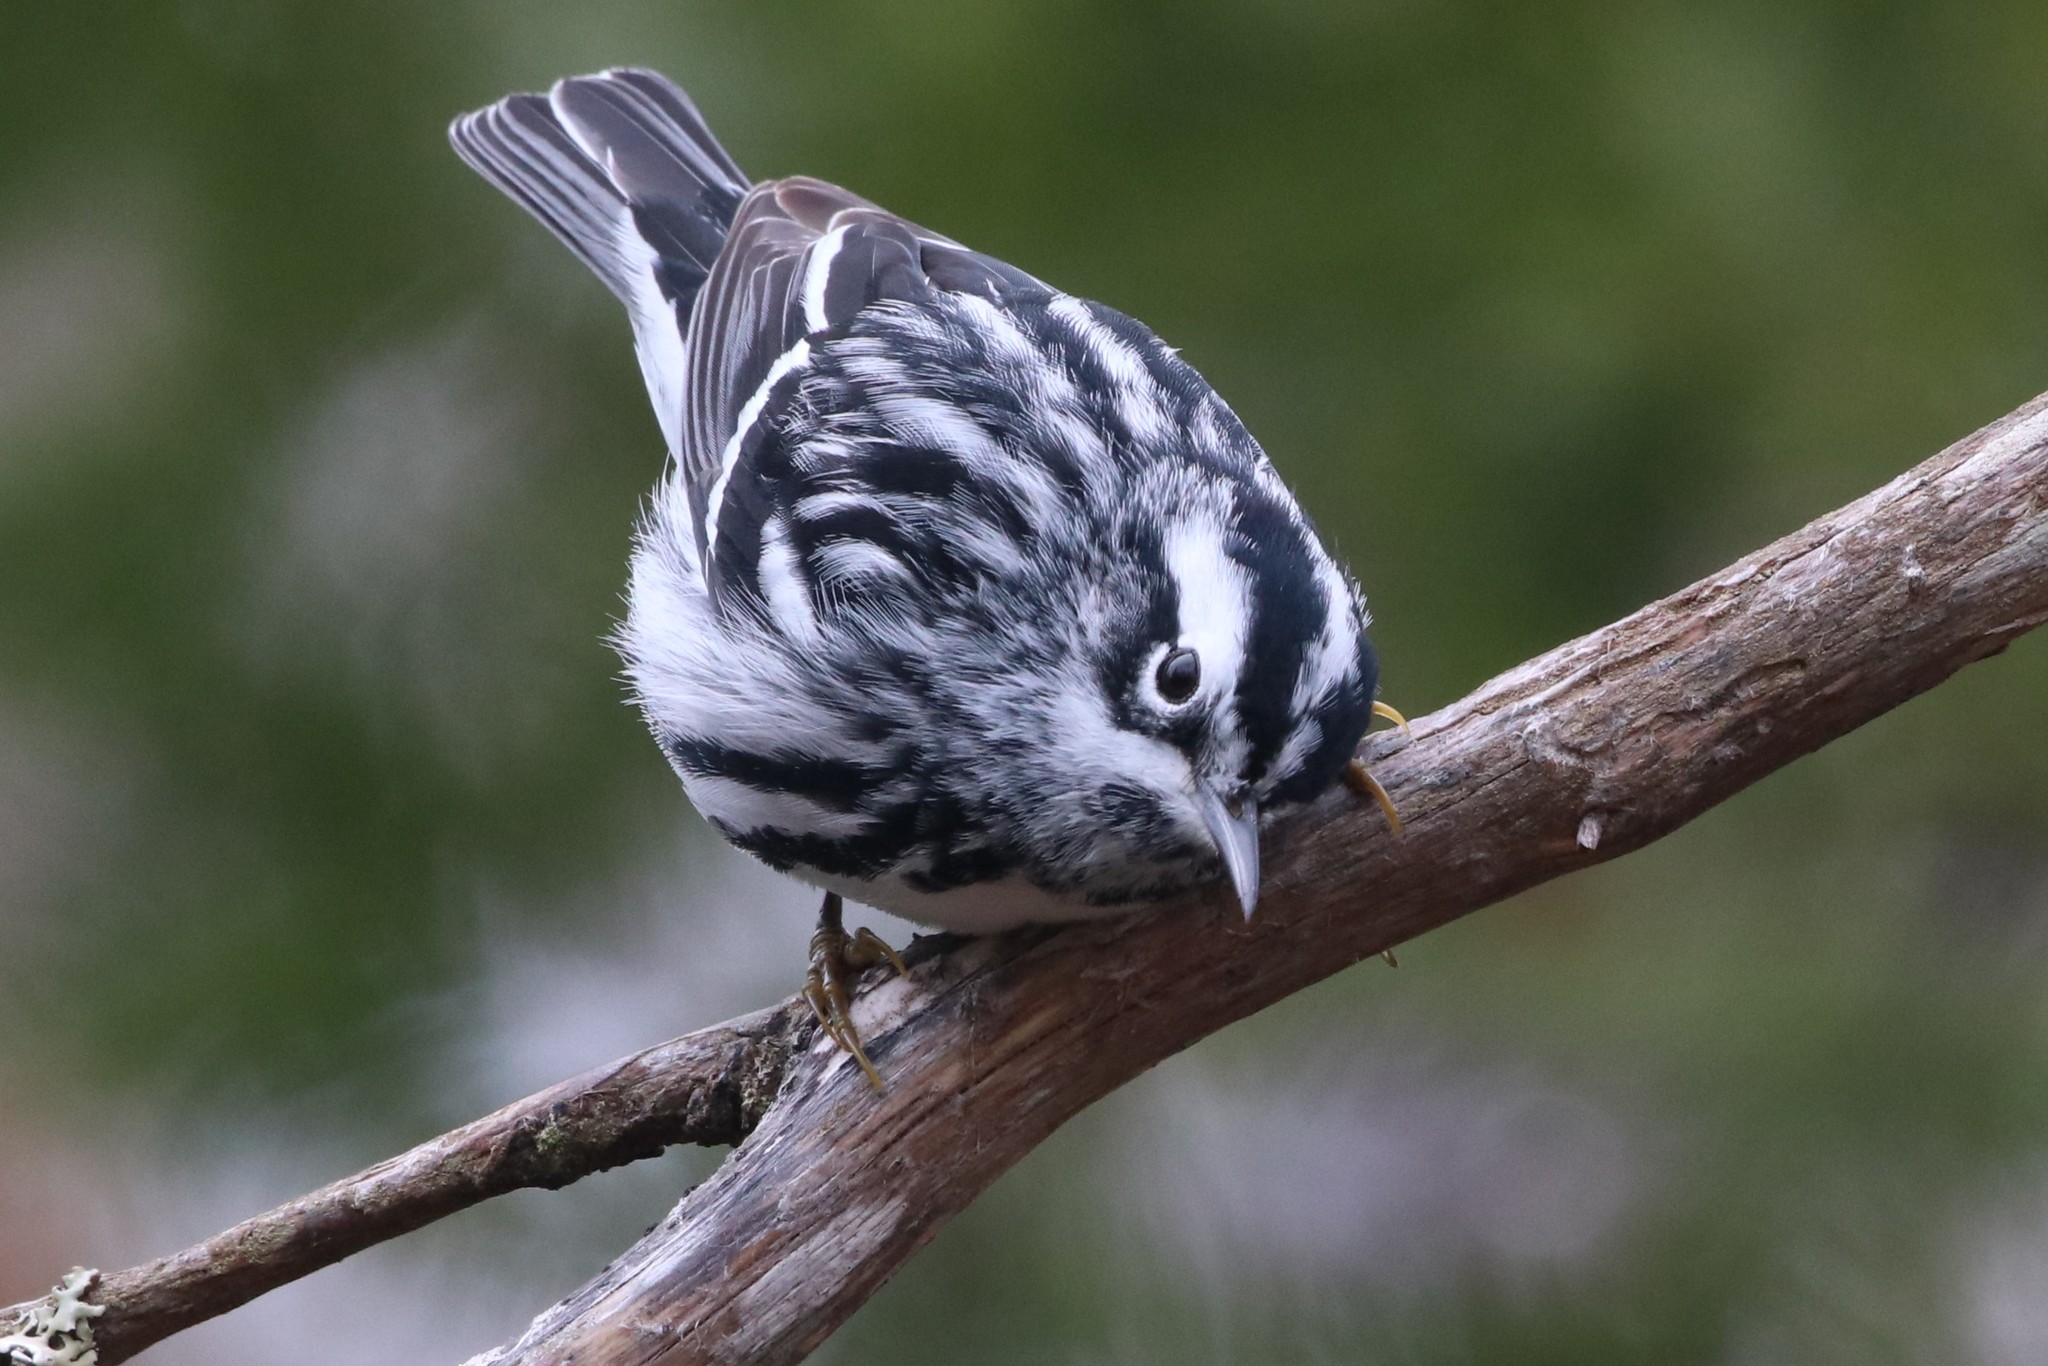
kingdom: Animalia
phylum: Chordata
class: Aves
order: Passeriformes
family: Parulidae
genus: Mniotilta
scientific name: Mniotilta varia
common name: Black-and-white warbler
